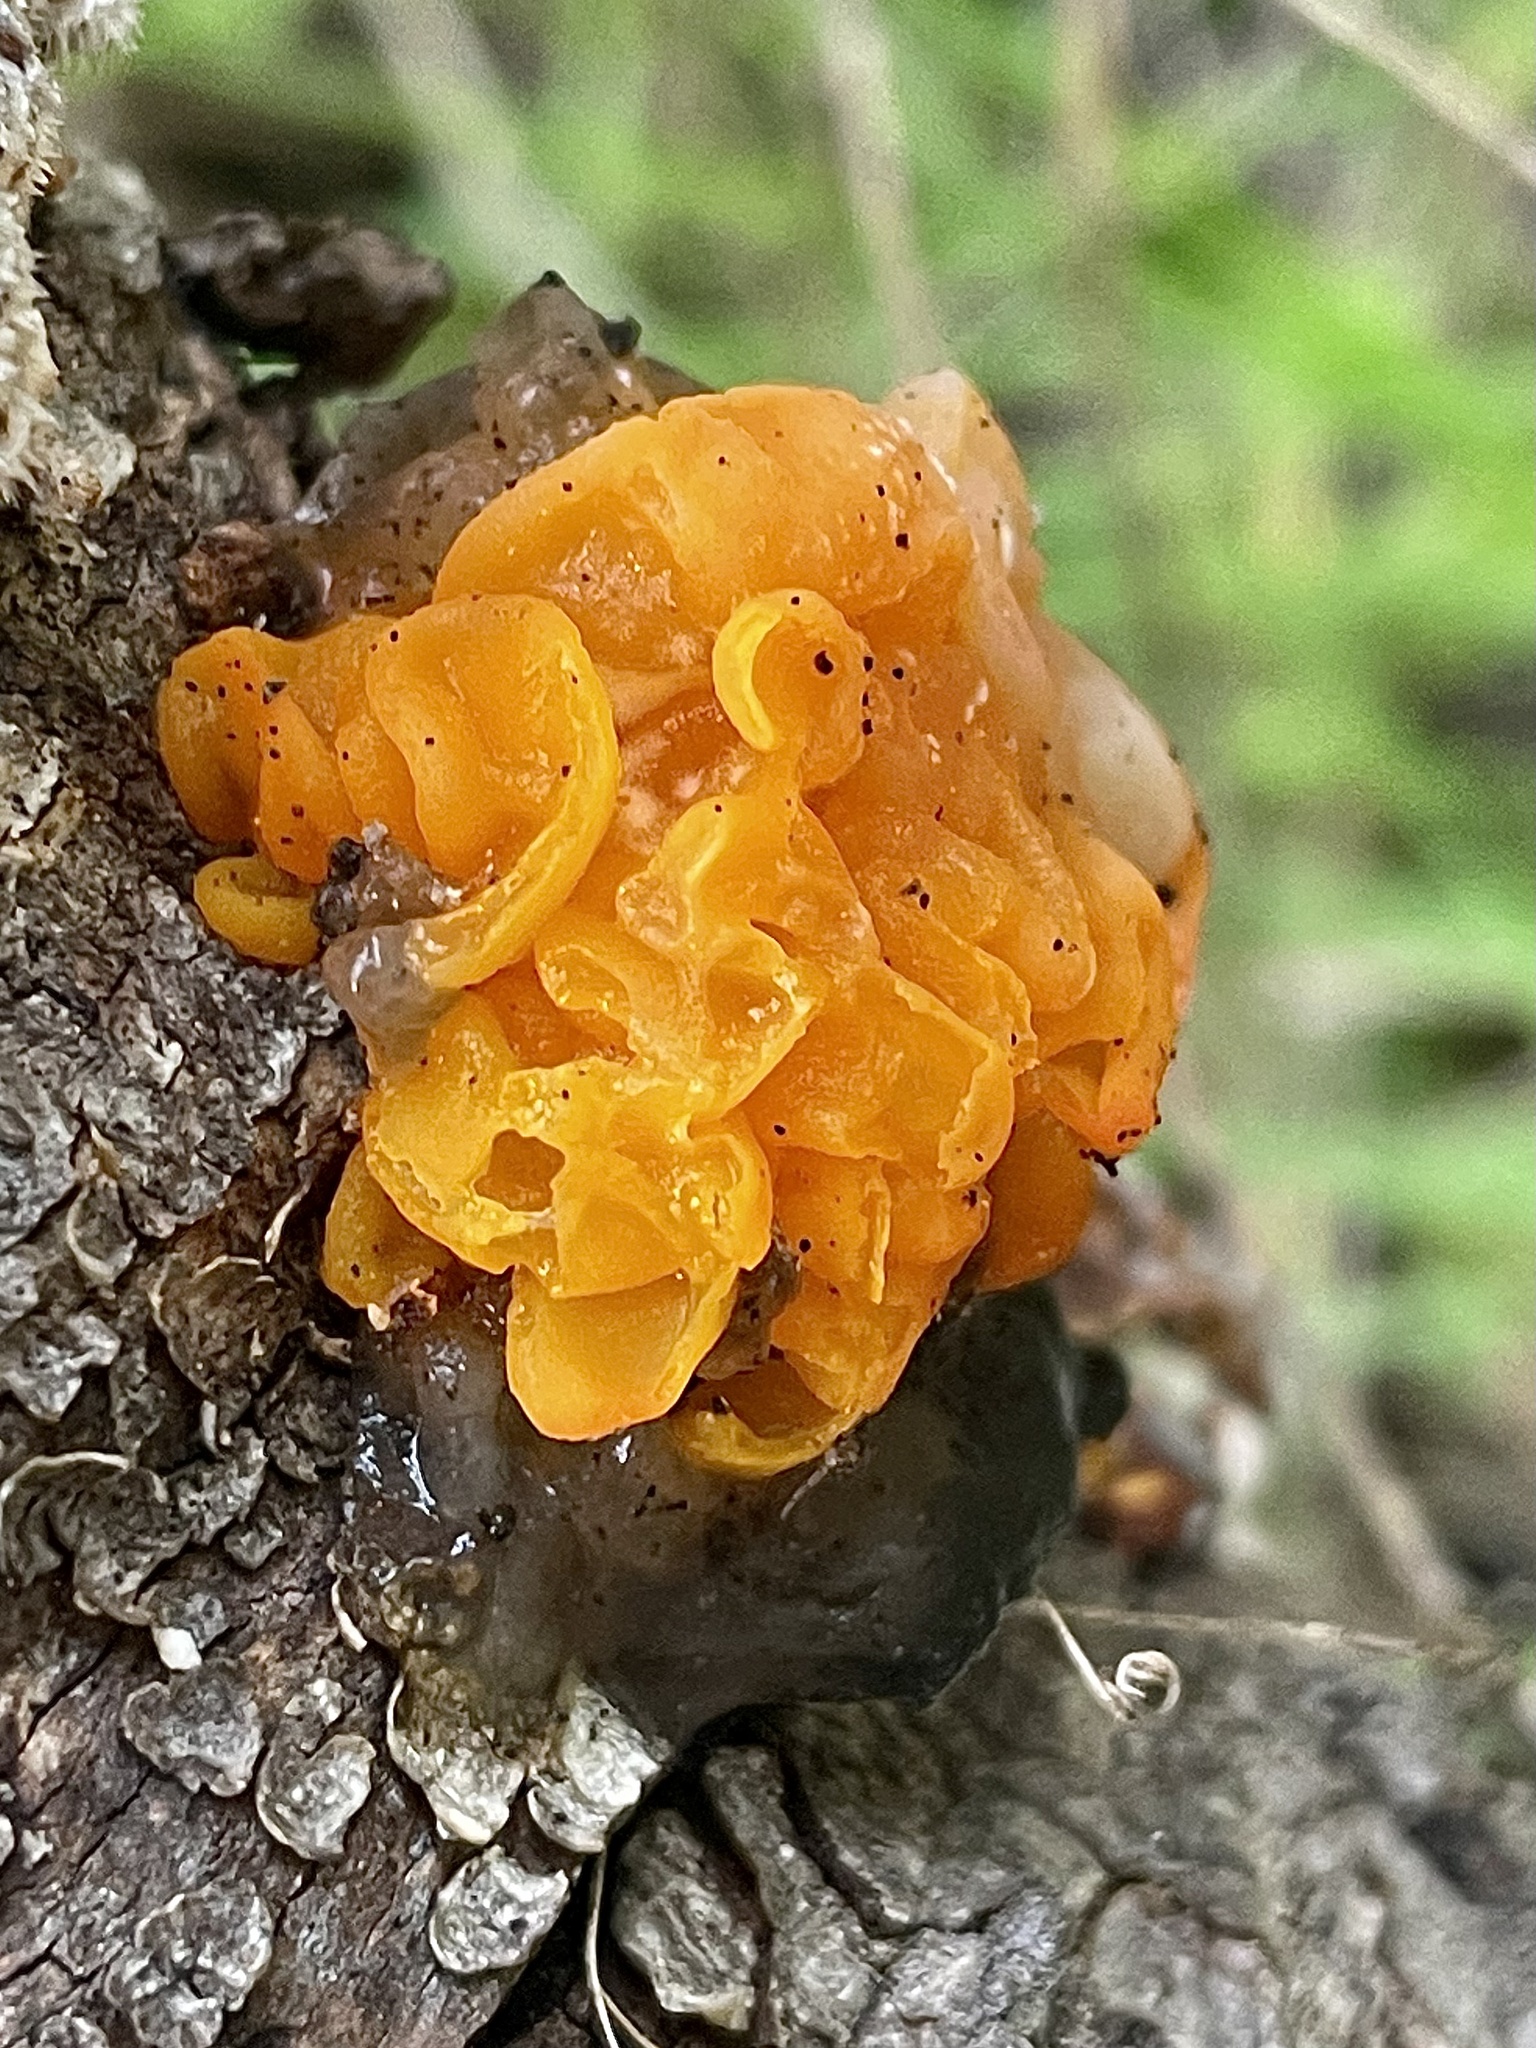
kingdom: Fungi
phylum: Basidiomycota
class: Tremellomycetes
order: Tremellales
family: Naemateliaceae
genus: Naematelia
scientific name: Naematelia aurantia
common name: Golden ear
